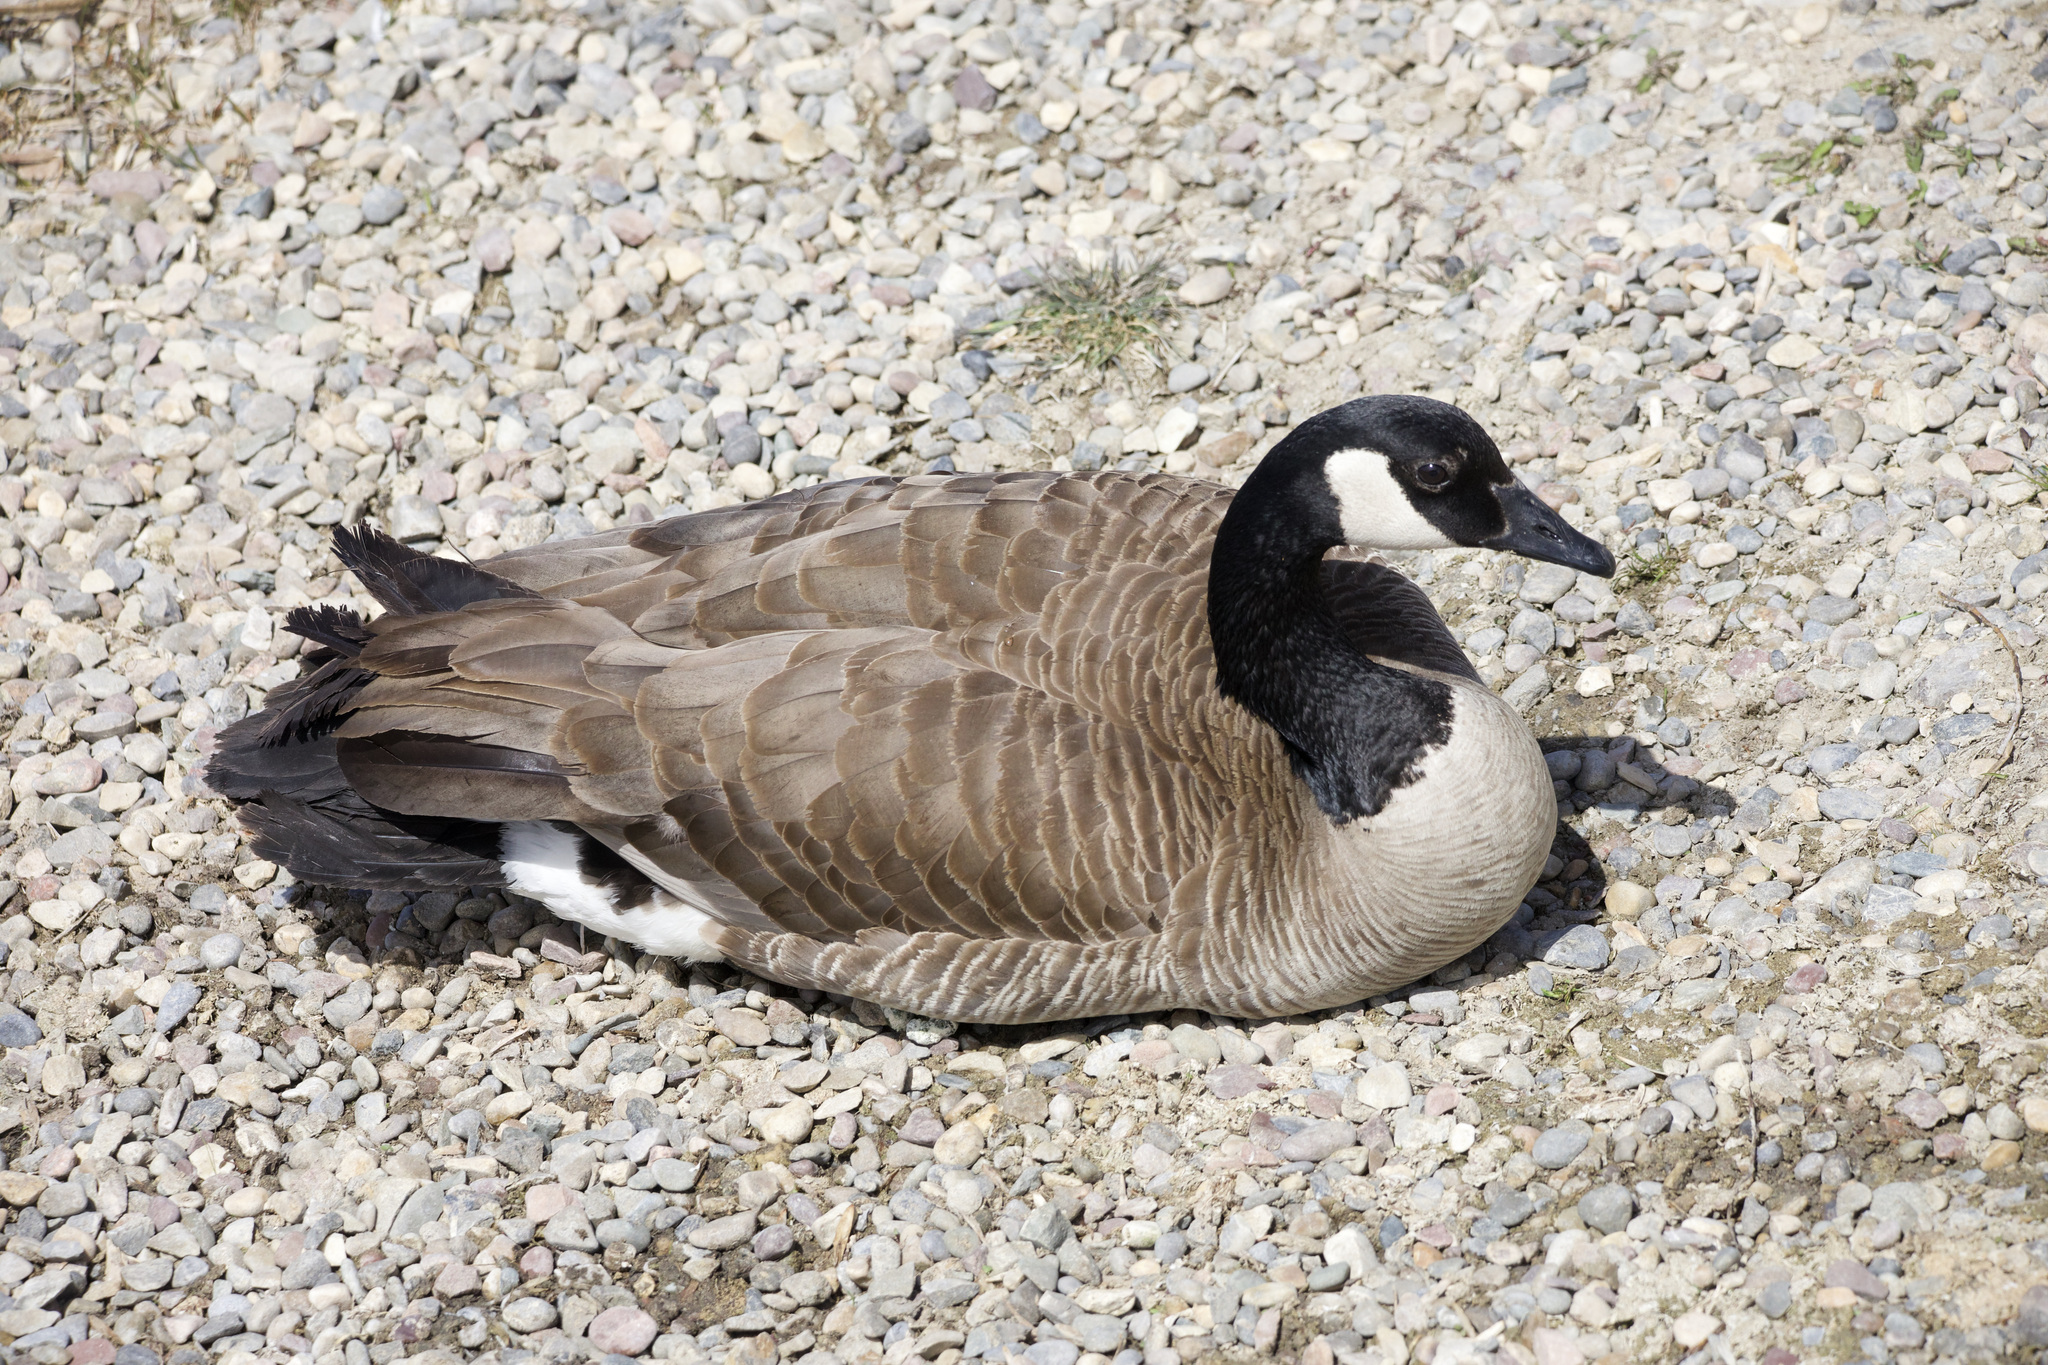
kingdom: Animalia
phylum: Chordata
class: Aves
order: Anseriformes
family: Anatidae
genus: Branta
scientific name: Branta canadensis
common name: Canada goose
